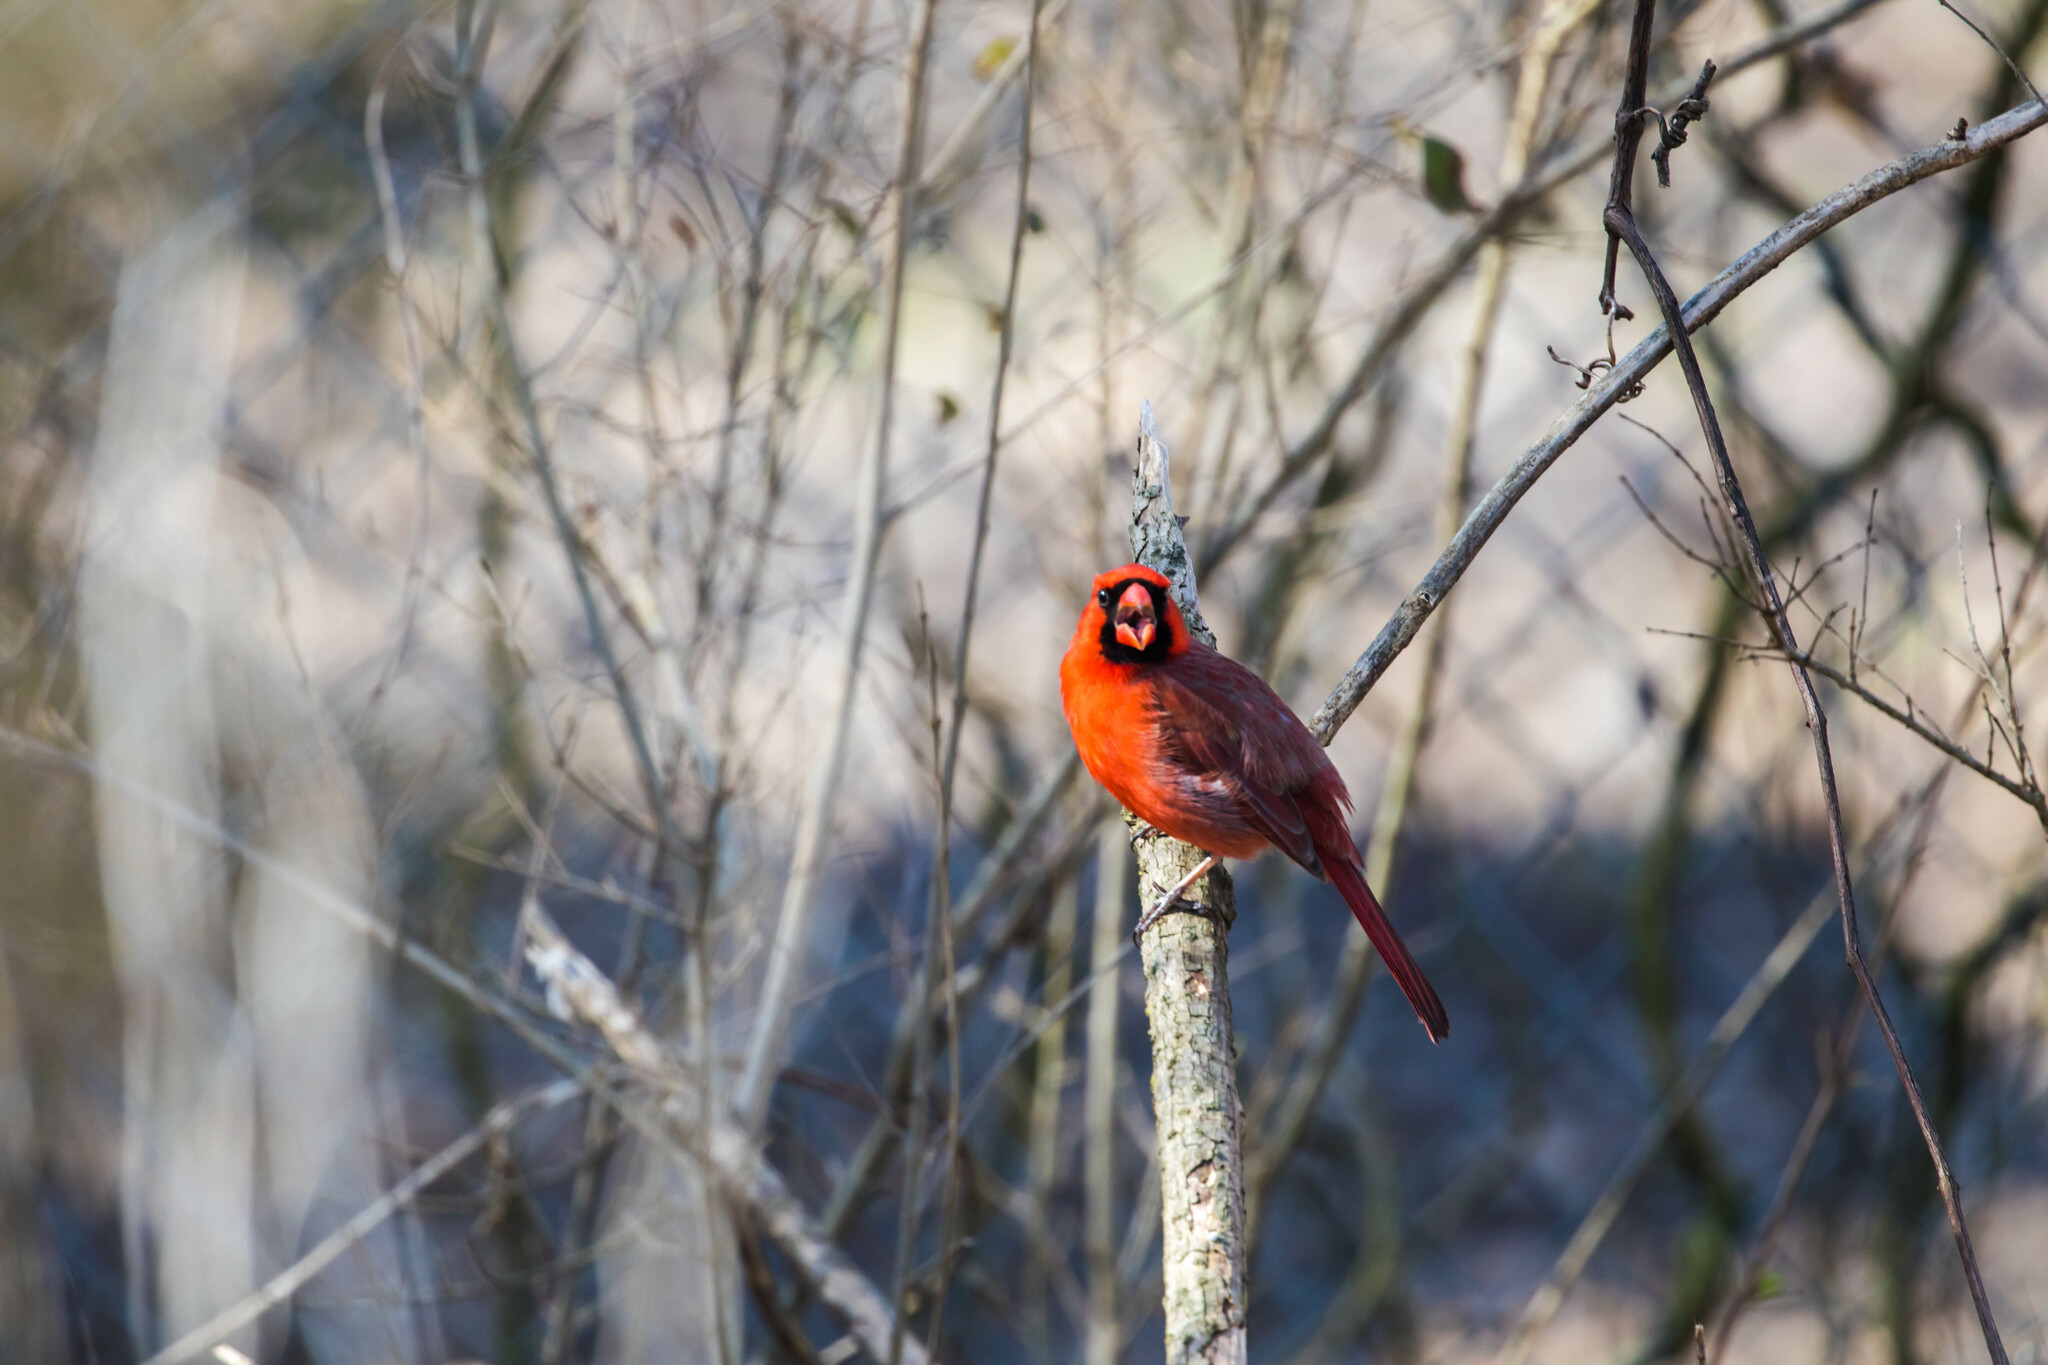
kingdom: Animalia
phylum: Chordata
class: Aves
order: Passeriformes
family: Cardinalidae
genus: Cardinalis
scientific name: Cardinalis cardinalis
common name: Northern cardinal
